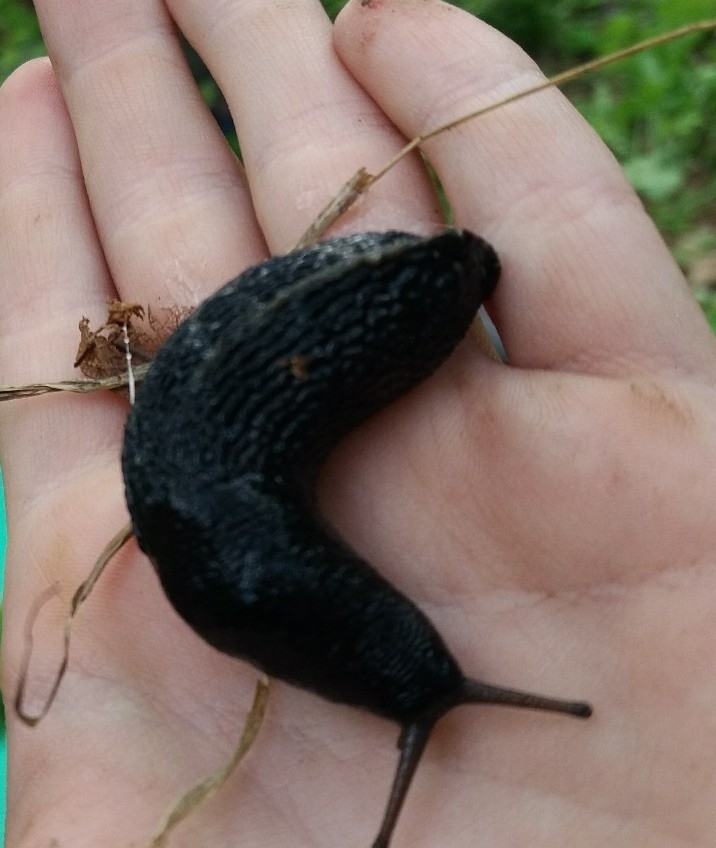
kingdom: Animalia
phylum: Mollusca
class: Gastropoda
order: Stylommatophora
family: Limacidae
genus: Limax
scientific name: Limax cinereoniger
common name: Ash-black slug
